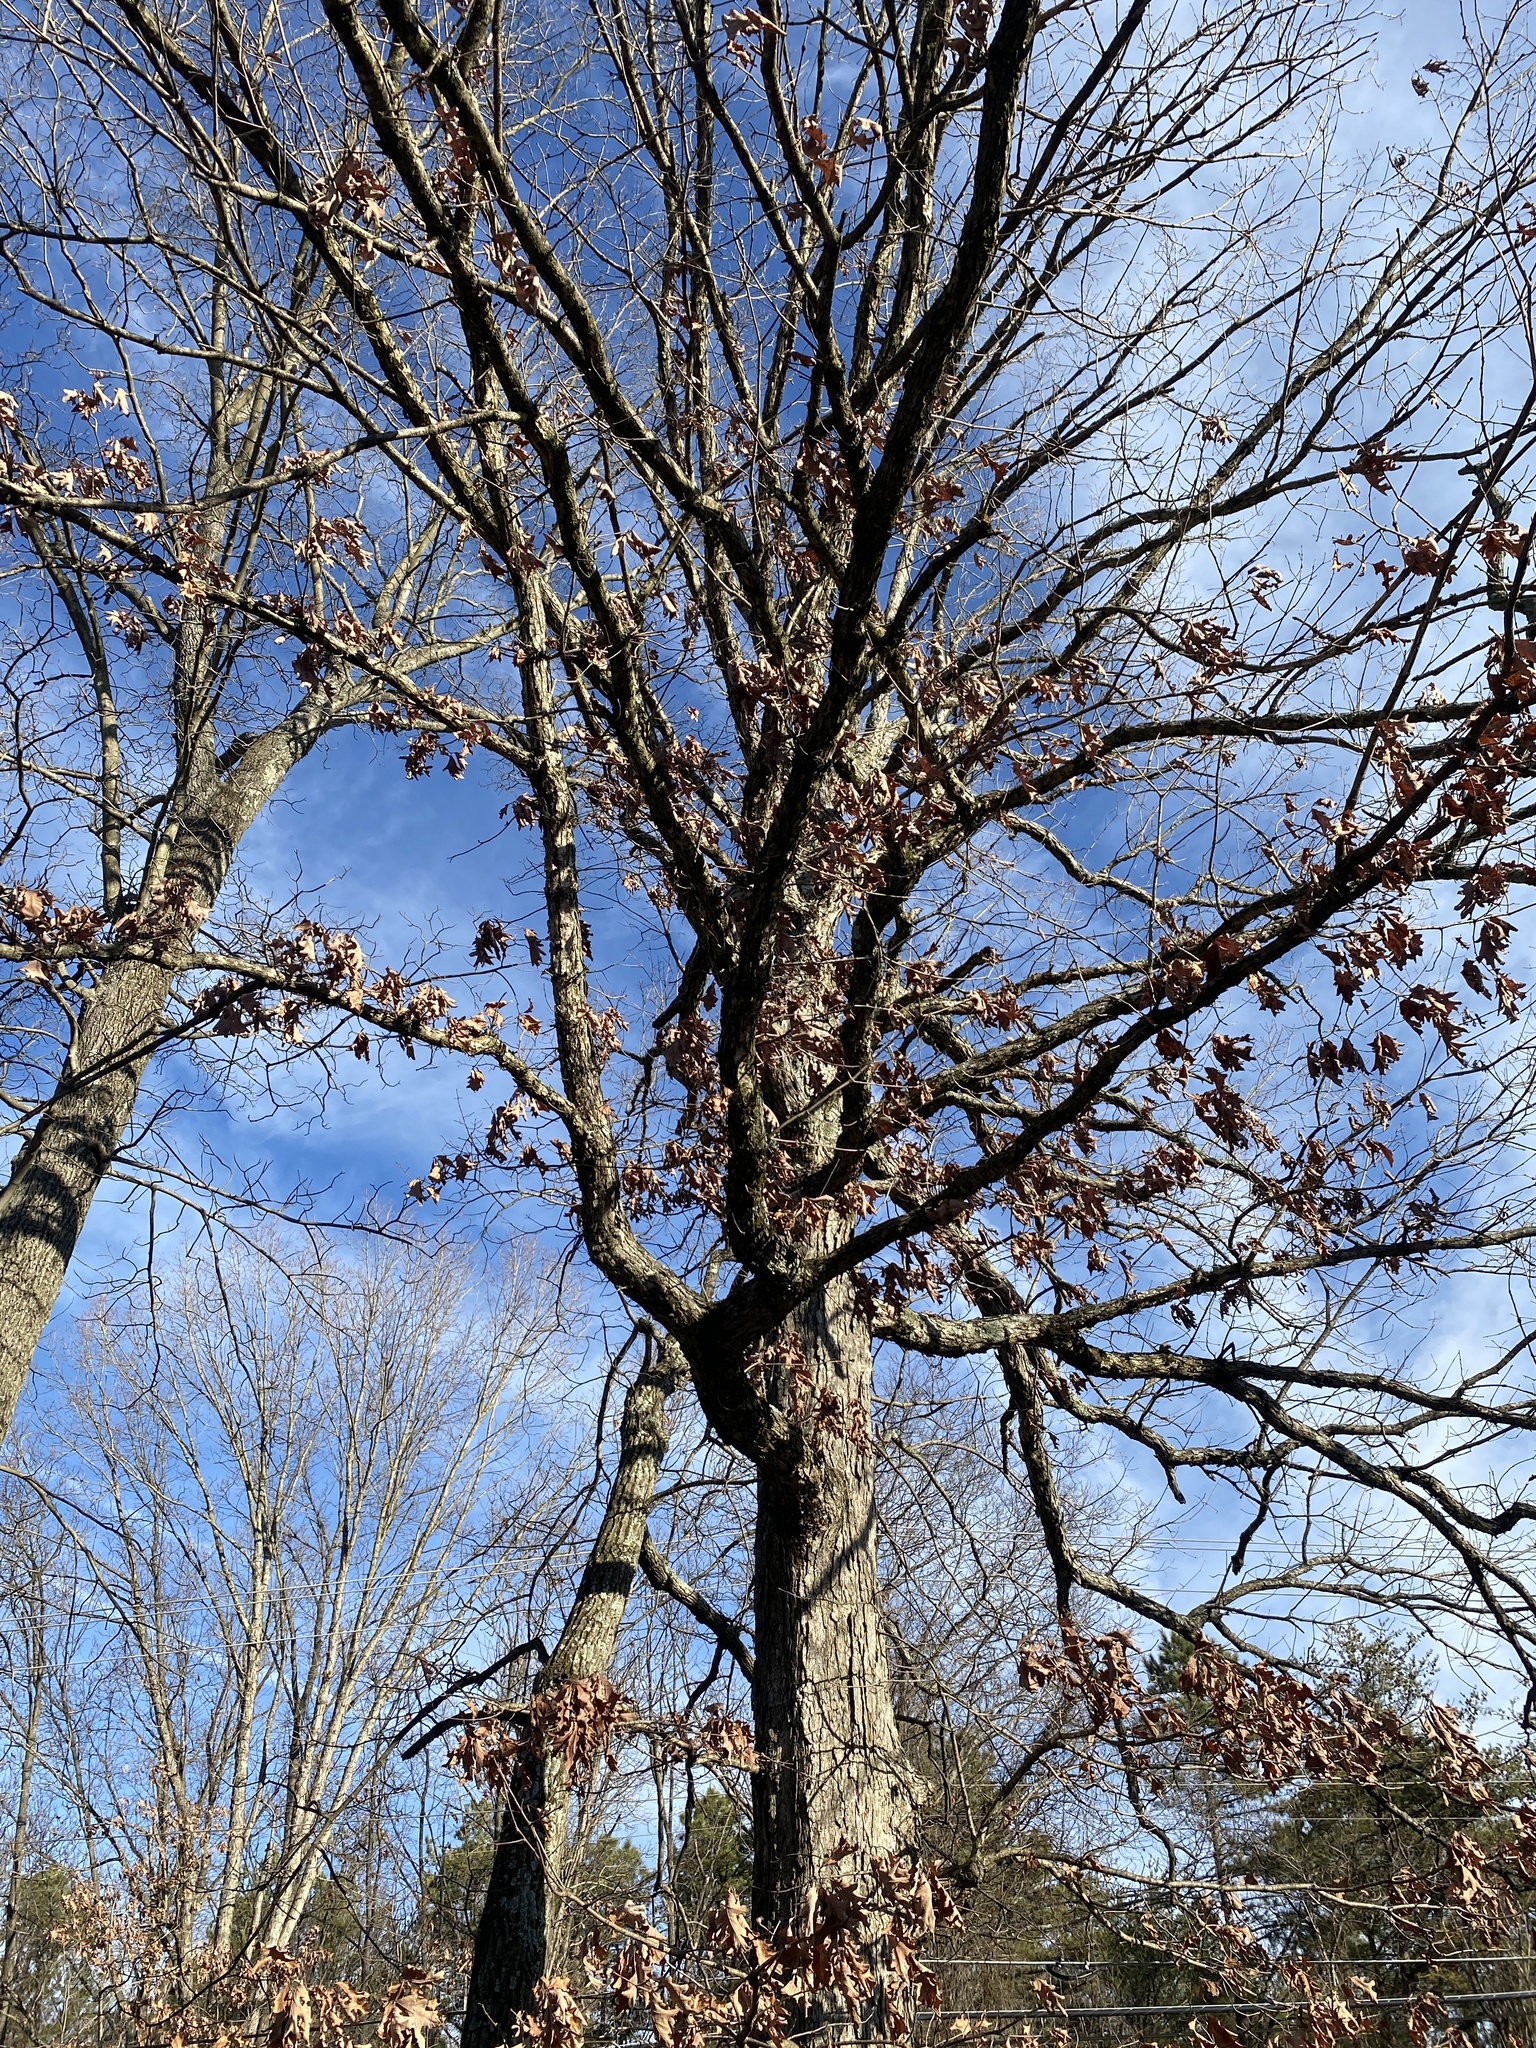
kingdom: Plantae
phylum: Tracheophyta
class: Magnoliopsida
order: Fagales
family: Fagaceae
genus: Quercus
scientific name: Quercus alba
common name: White oak
